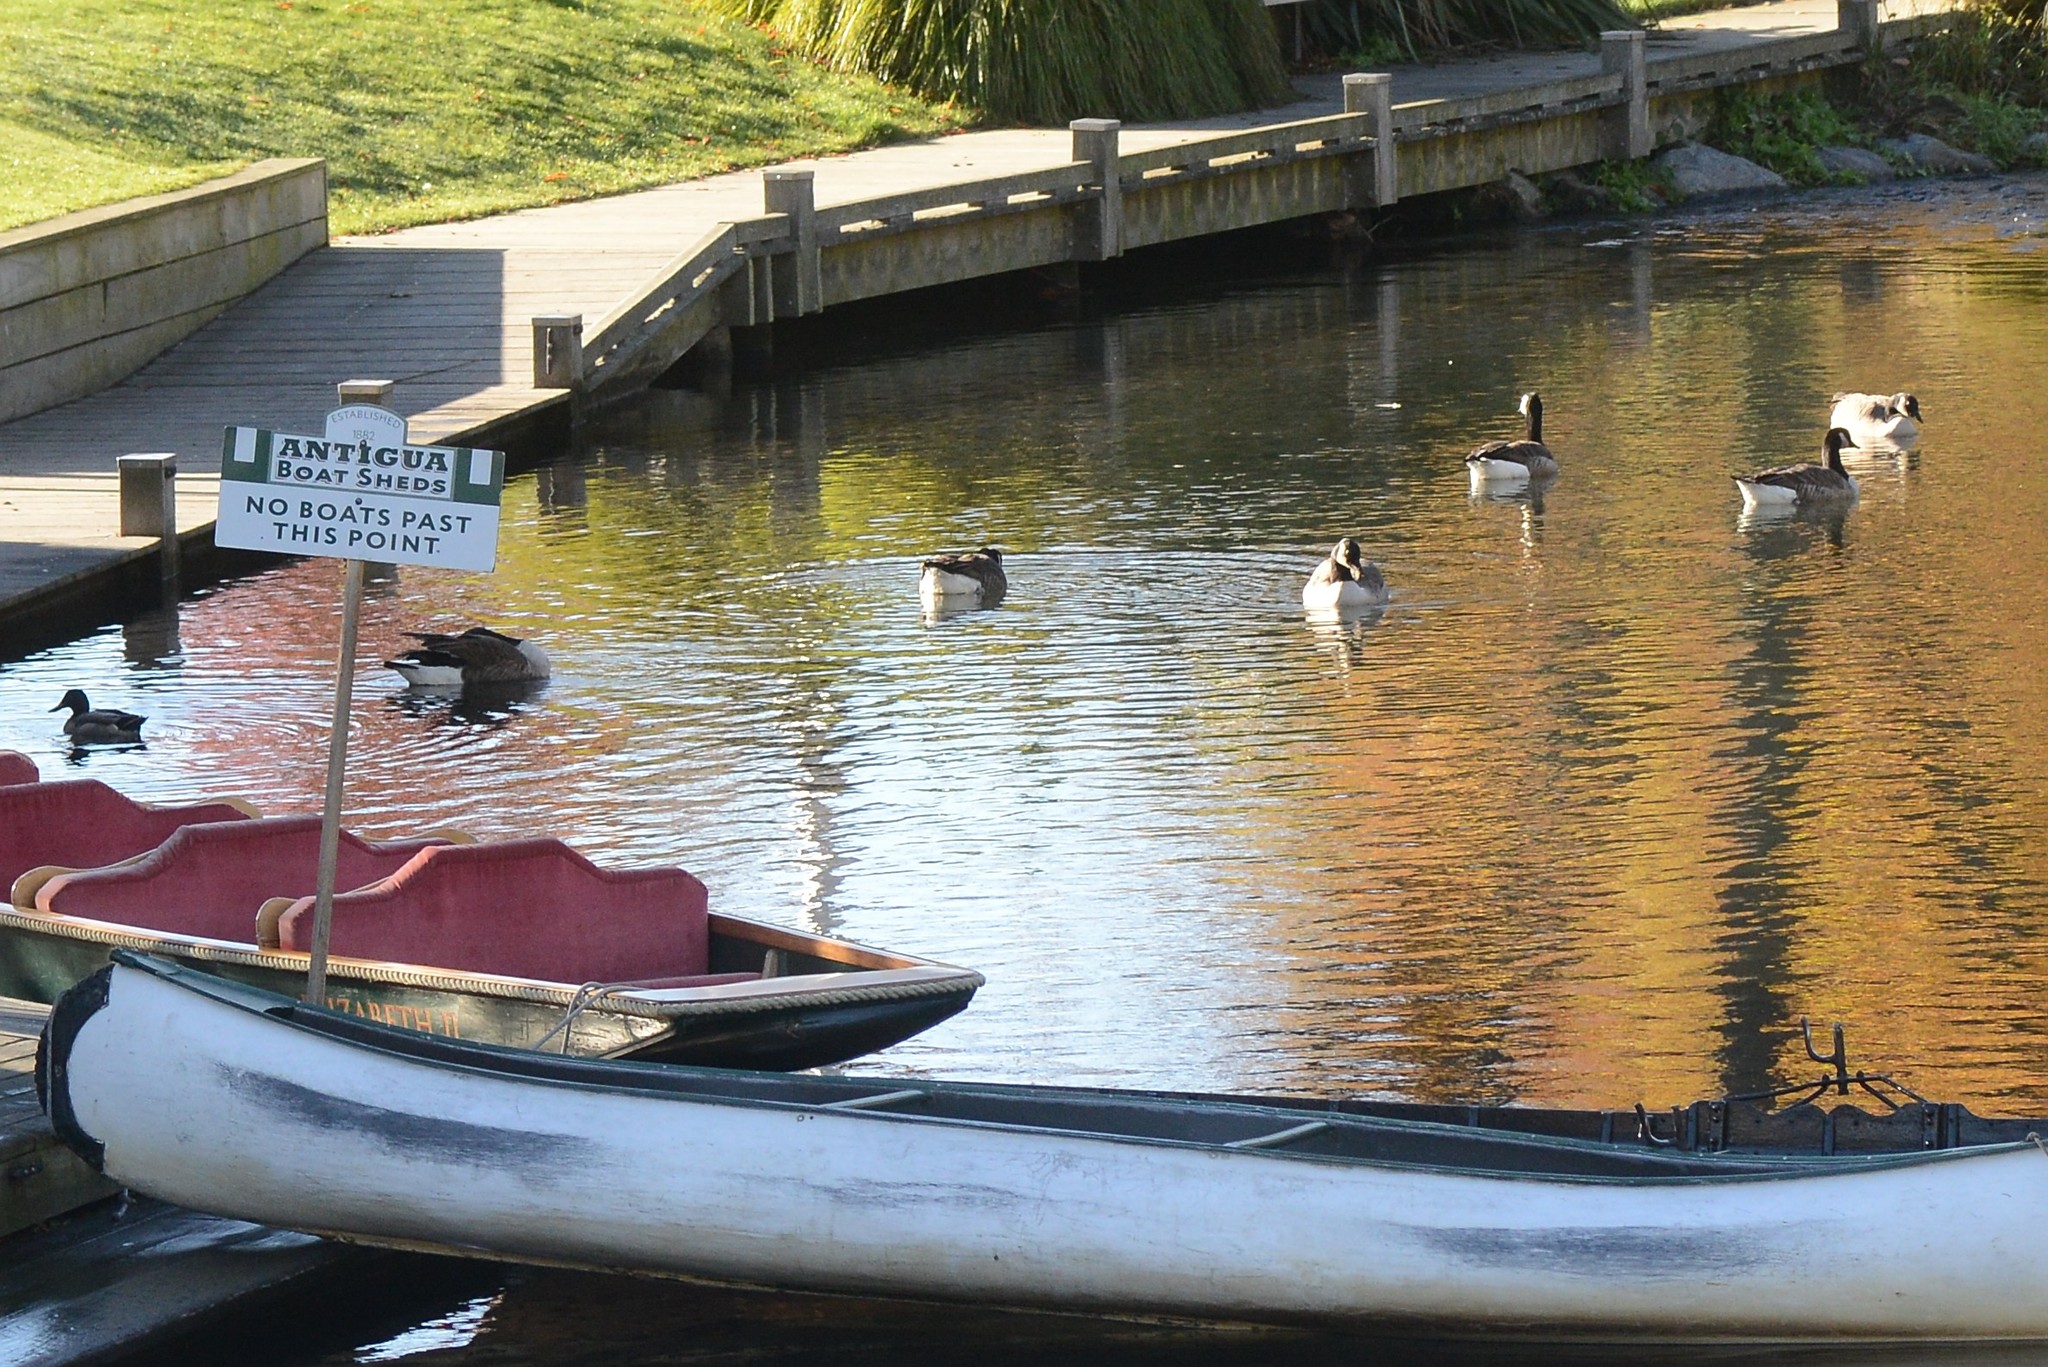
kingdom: Animalia
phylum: Chordata
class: Aves
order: Anseriformes
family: Anatidae
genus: Branta
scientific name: Branta canadensis
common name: Canada goose
